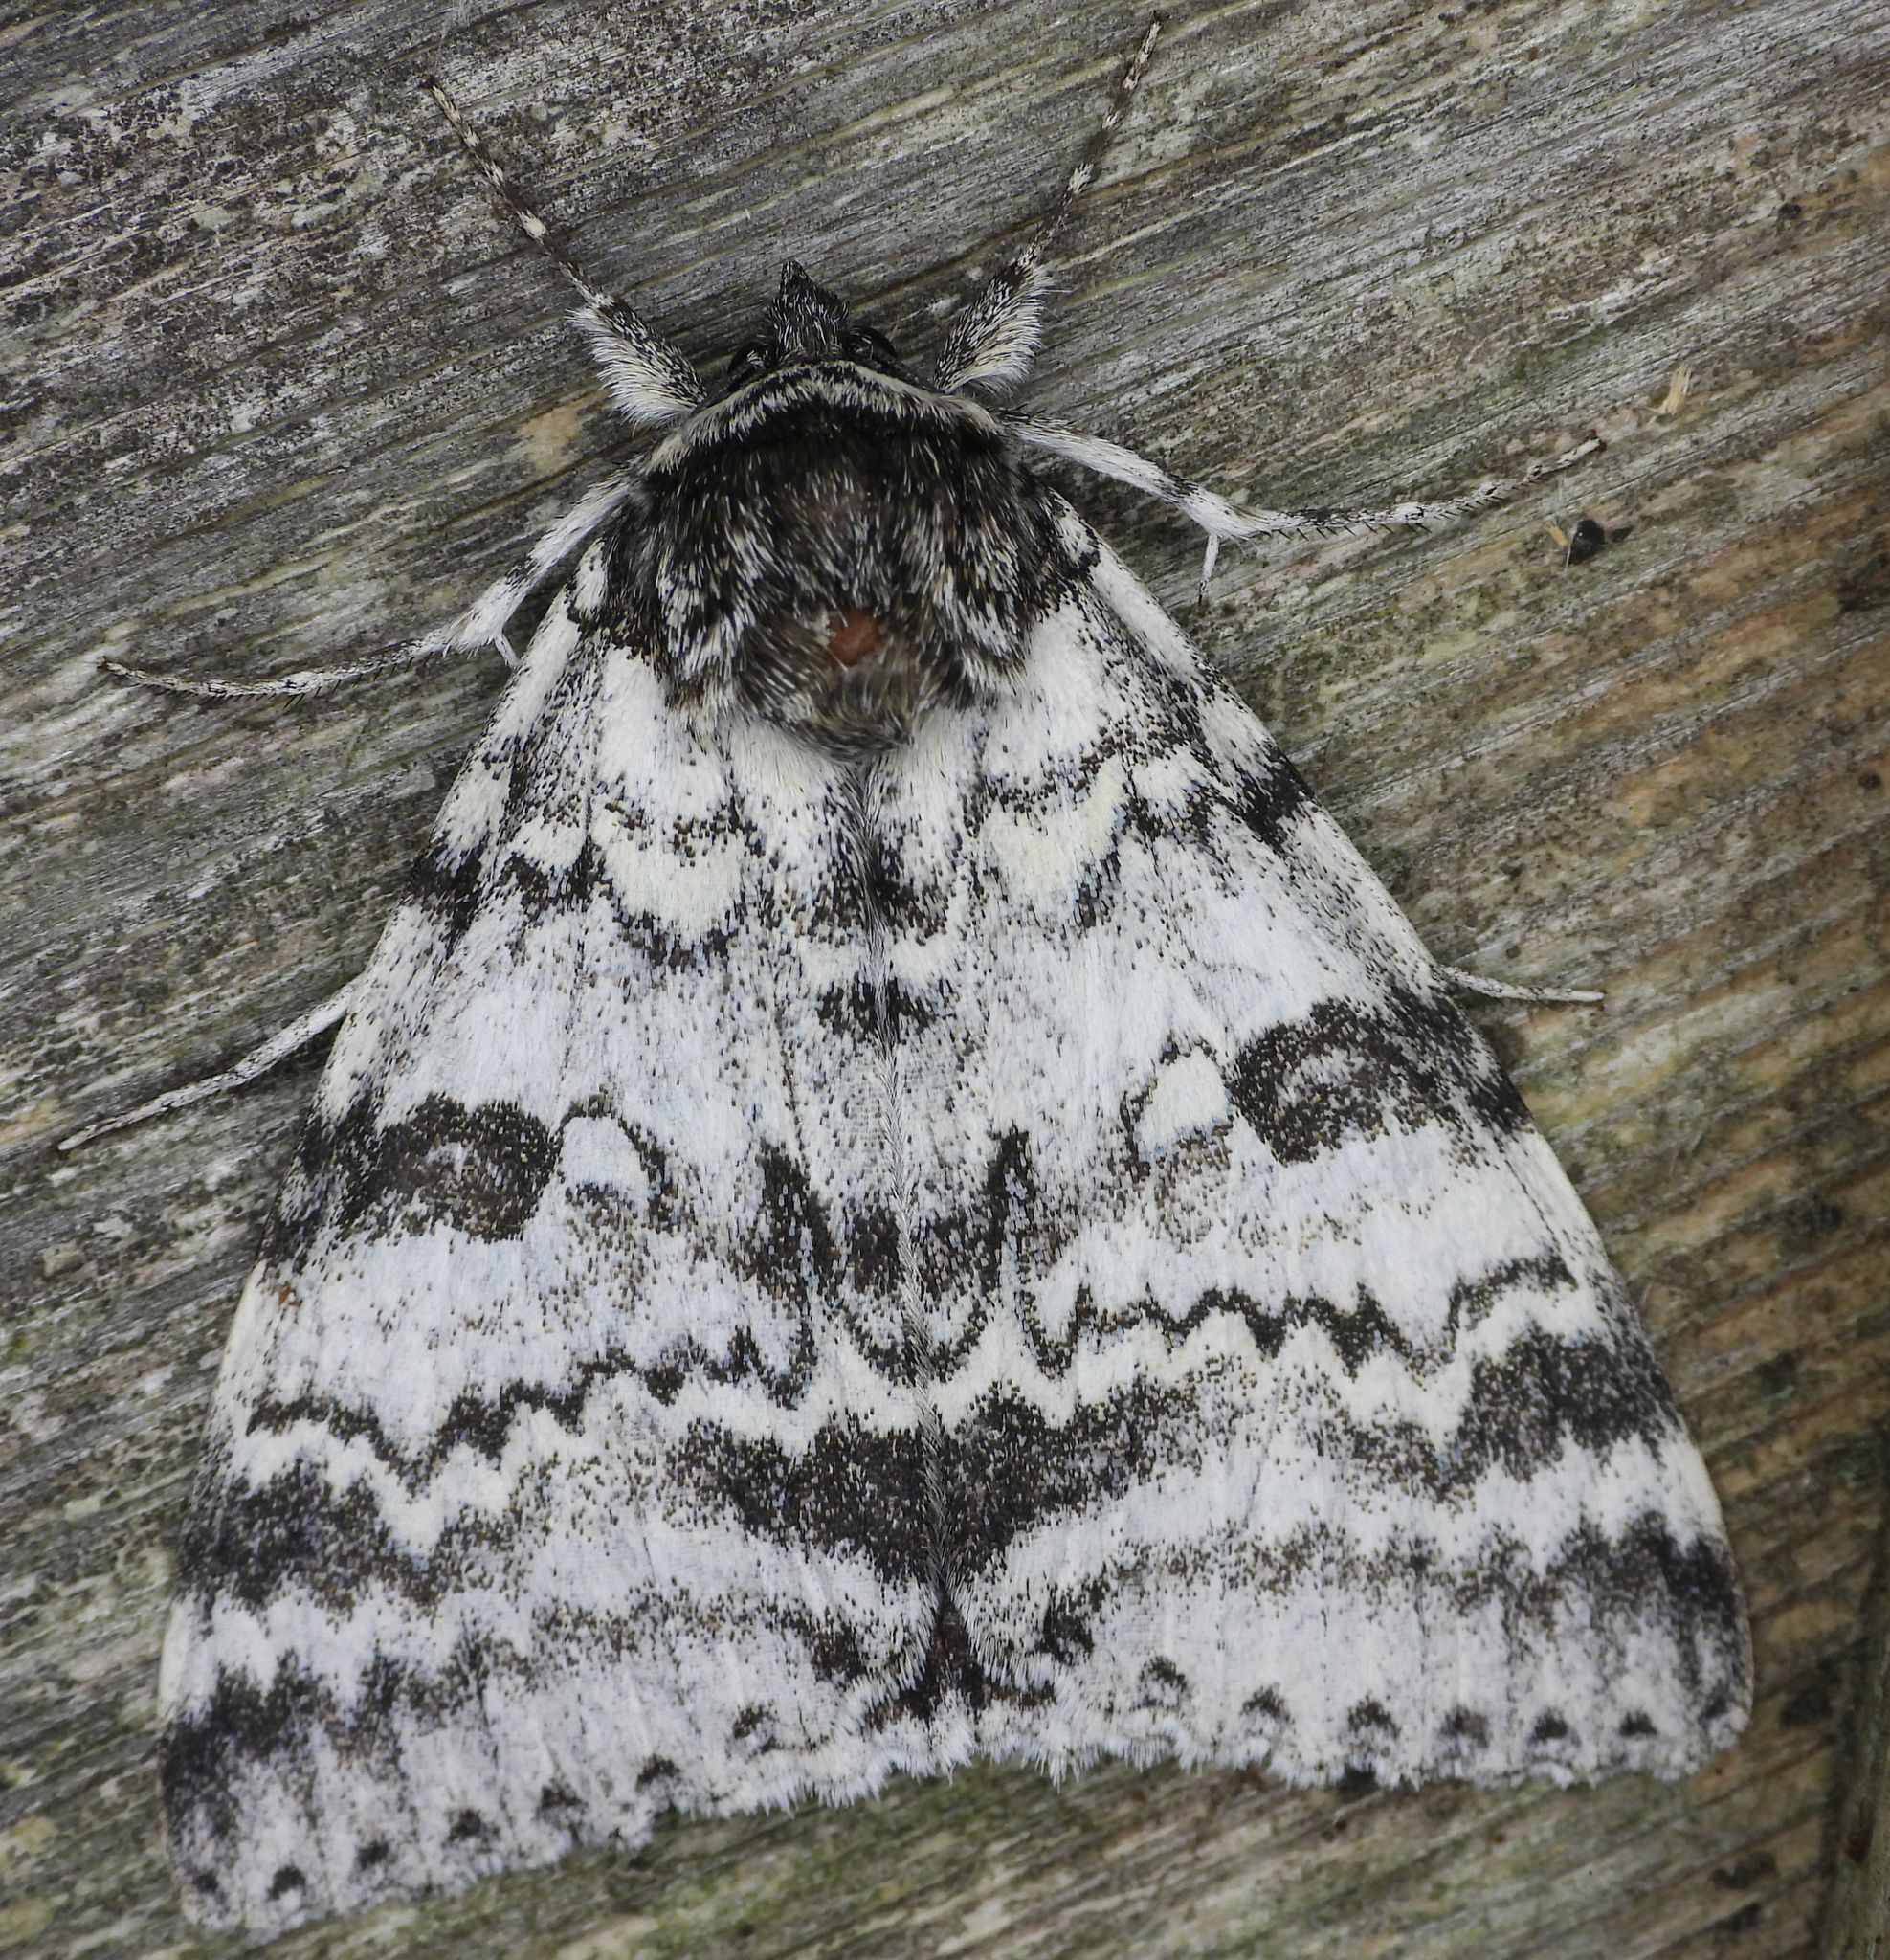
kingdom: Animalia
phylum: Arthropoda
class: Insecta
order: Lepidoptera
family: Erebidae
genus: Catocala
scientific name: Catocala relicta
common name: White underwing
